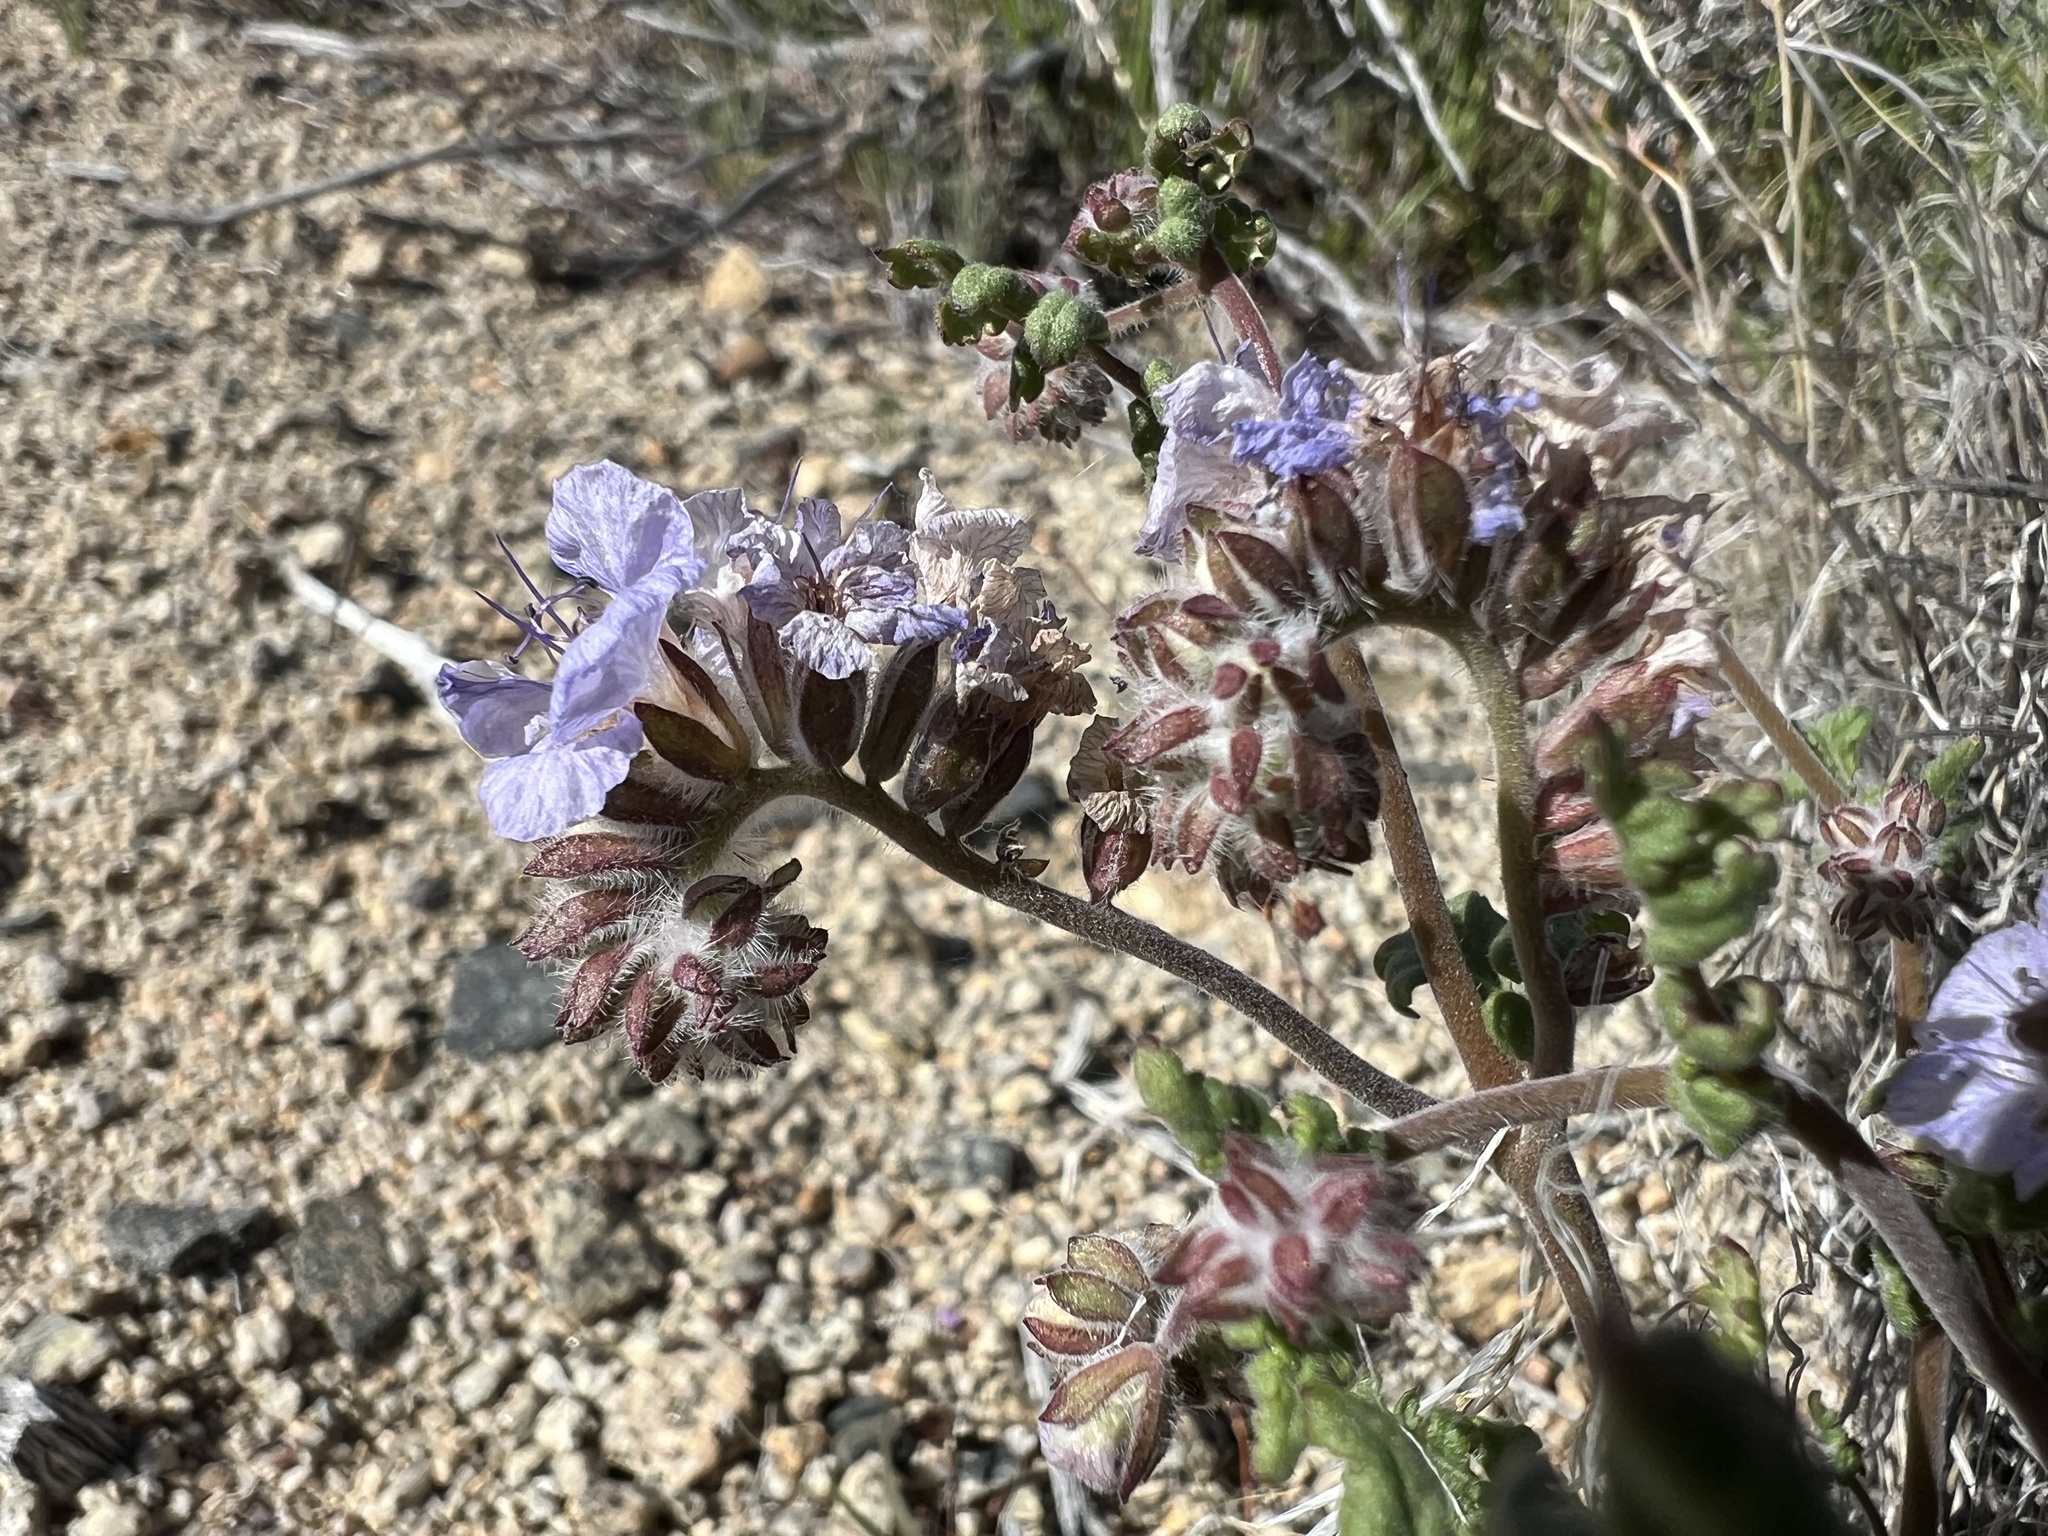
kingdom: Plantae
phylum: Tracheophyta
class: Magnoliopsida
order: Boraginales
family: Hydrophyllaceae
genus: Phacelia
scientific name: Phacelia distans
